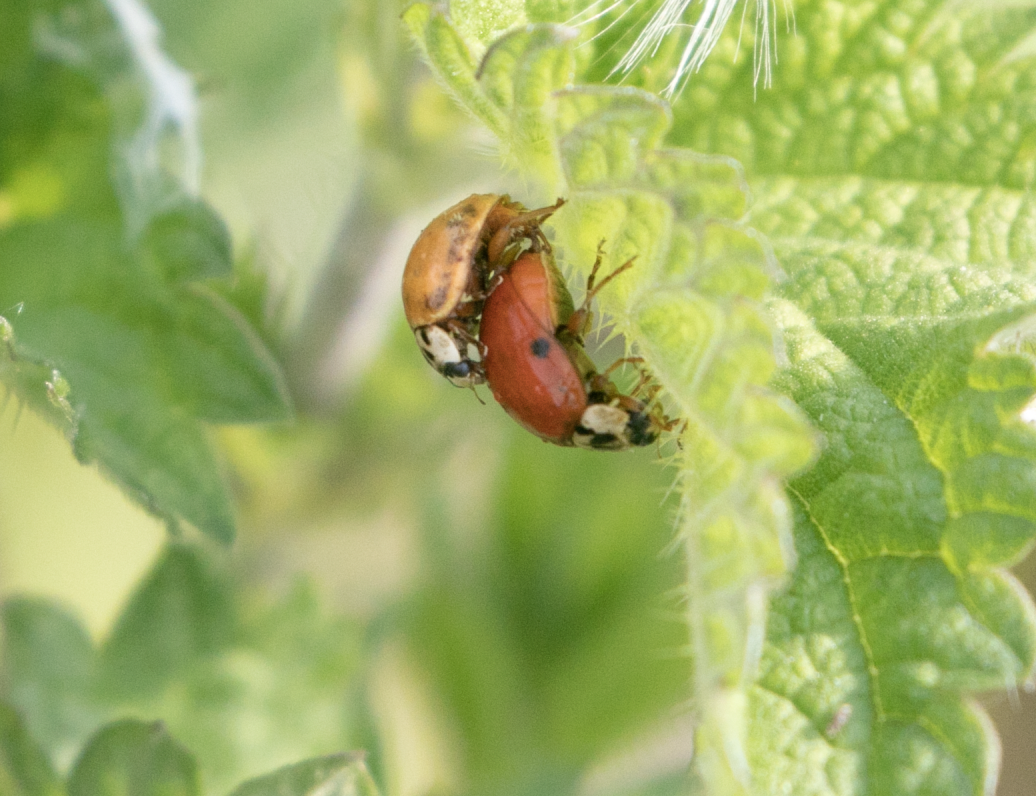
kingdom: Animalia
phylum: Arthropoda
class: Insecta
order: Coleoptera
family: Coccinellidae
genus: Harmonia
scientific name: Harmonia axyridis
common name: Harlequin ladybird
